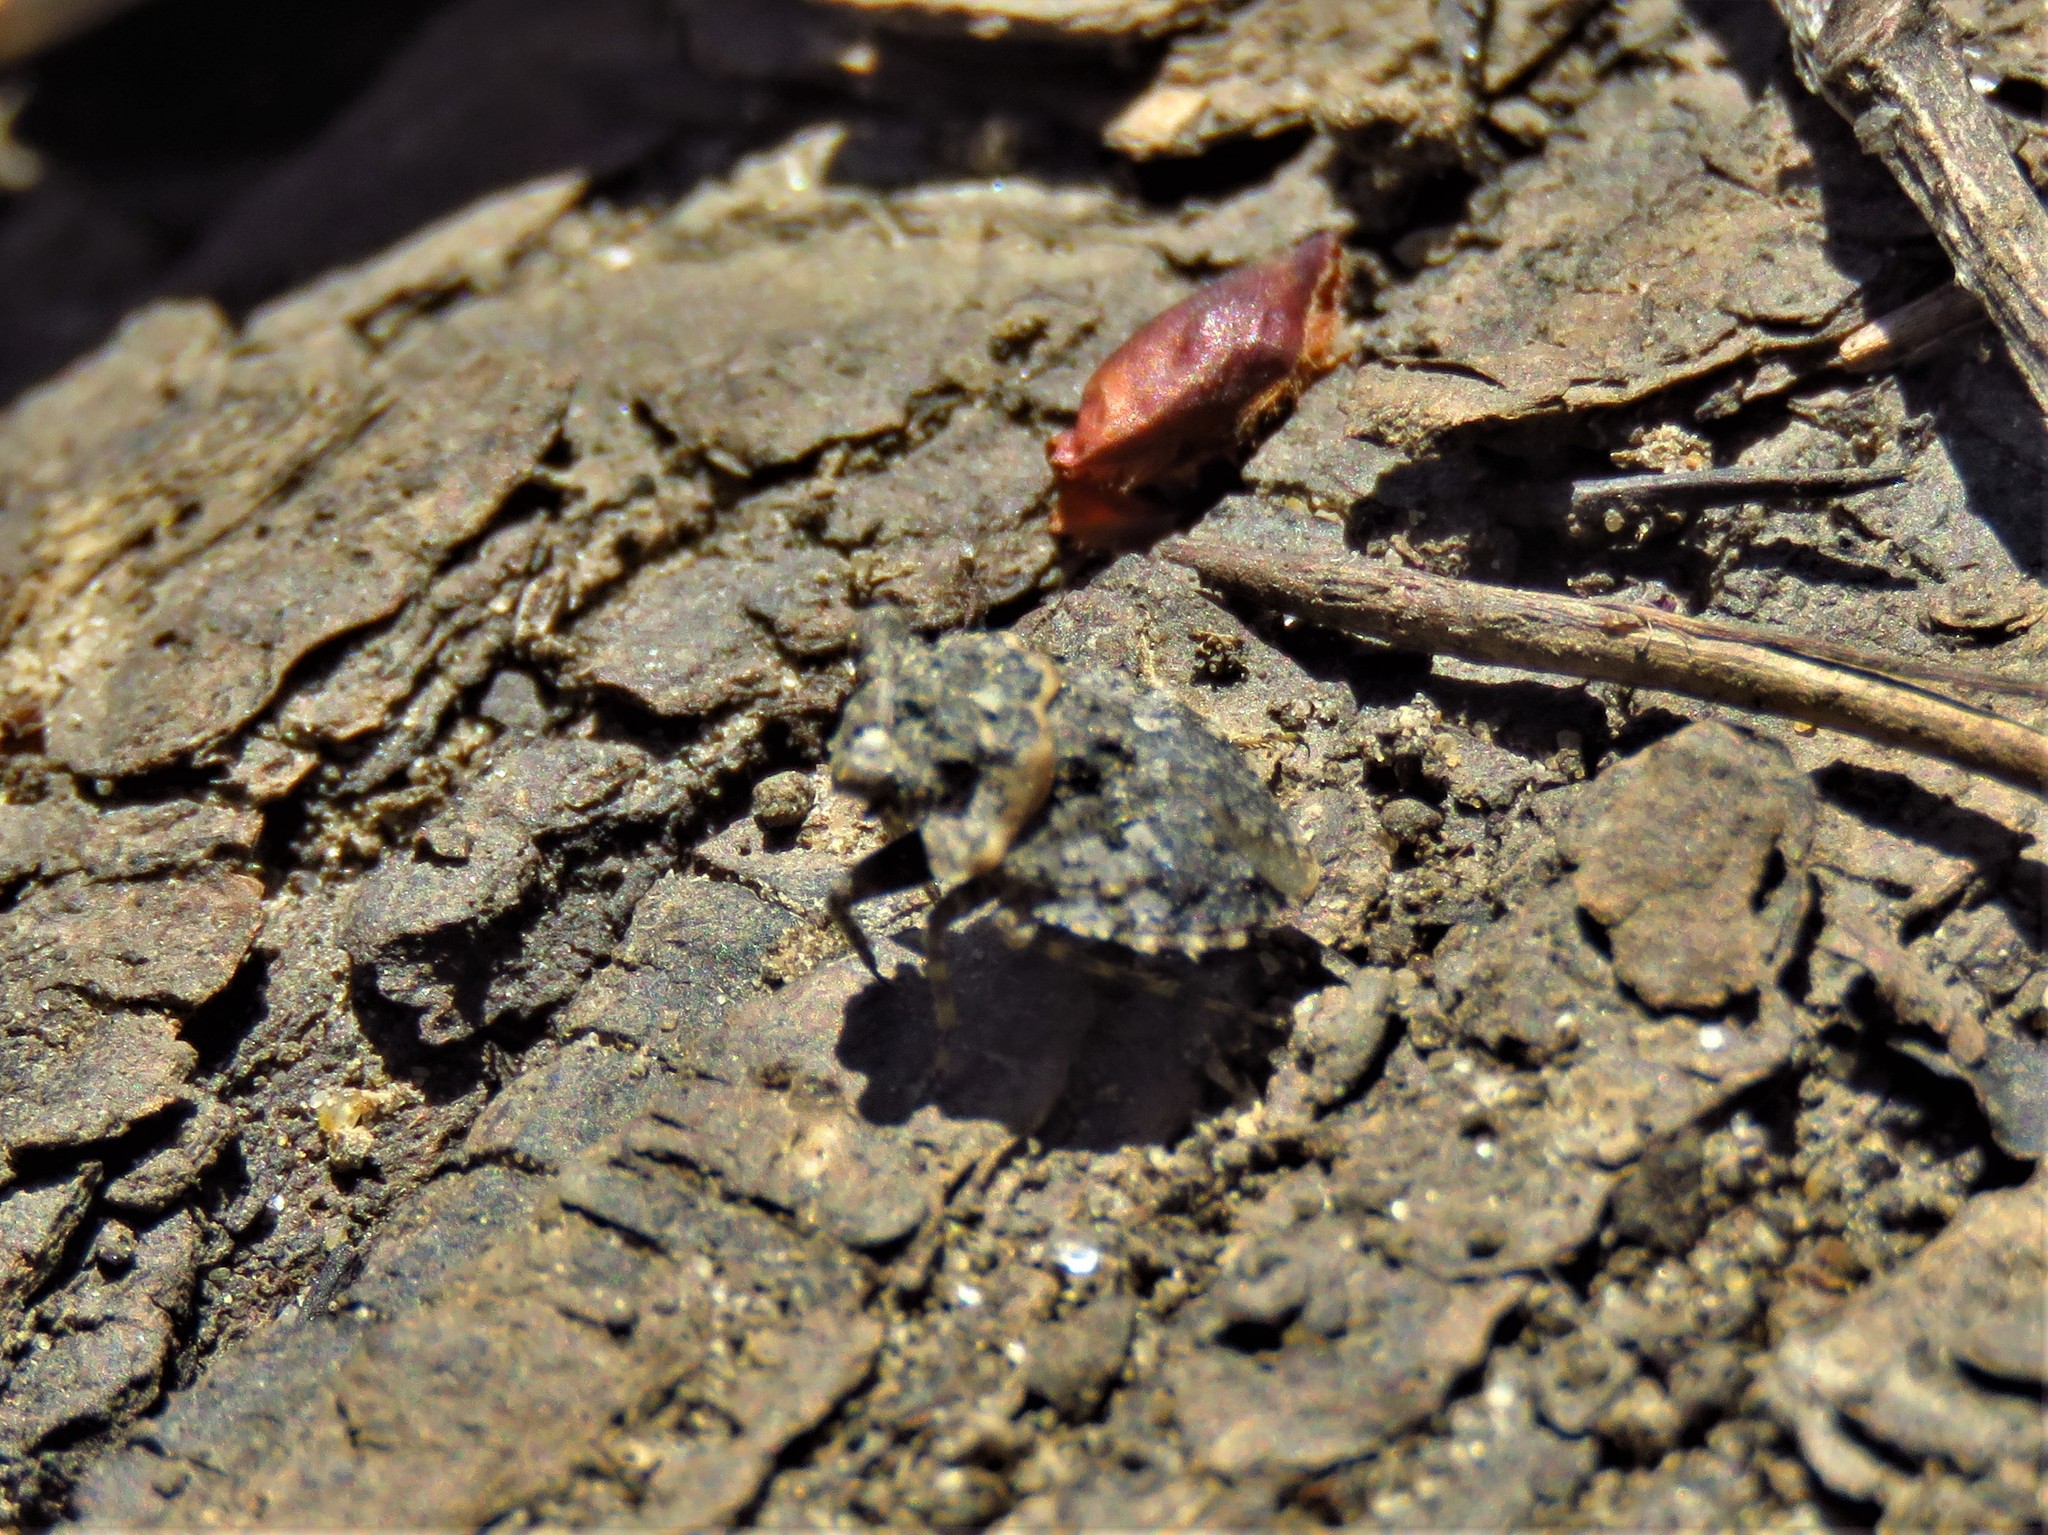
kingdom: Animalia
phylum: Arthropoda
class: Insecta
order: Hemiptera
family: Gelastocoridae
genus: Gelastocoris
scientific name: Gelastocoris oculatus
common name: Toad bug
